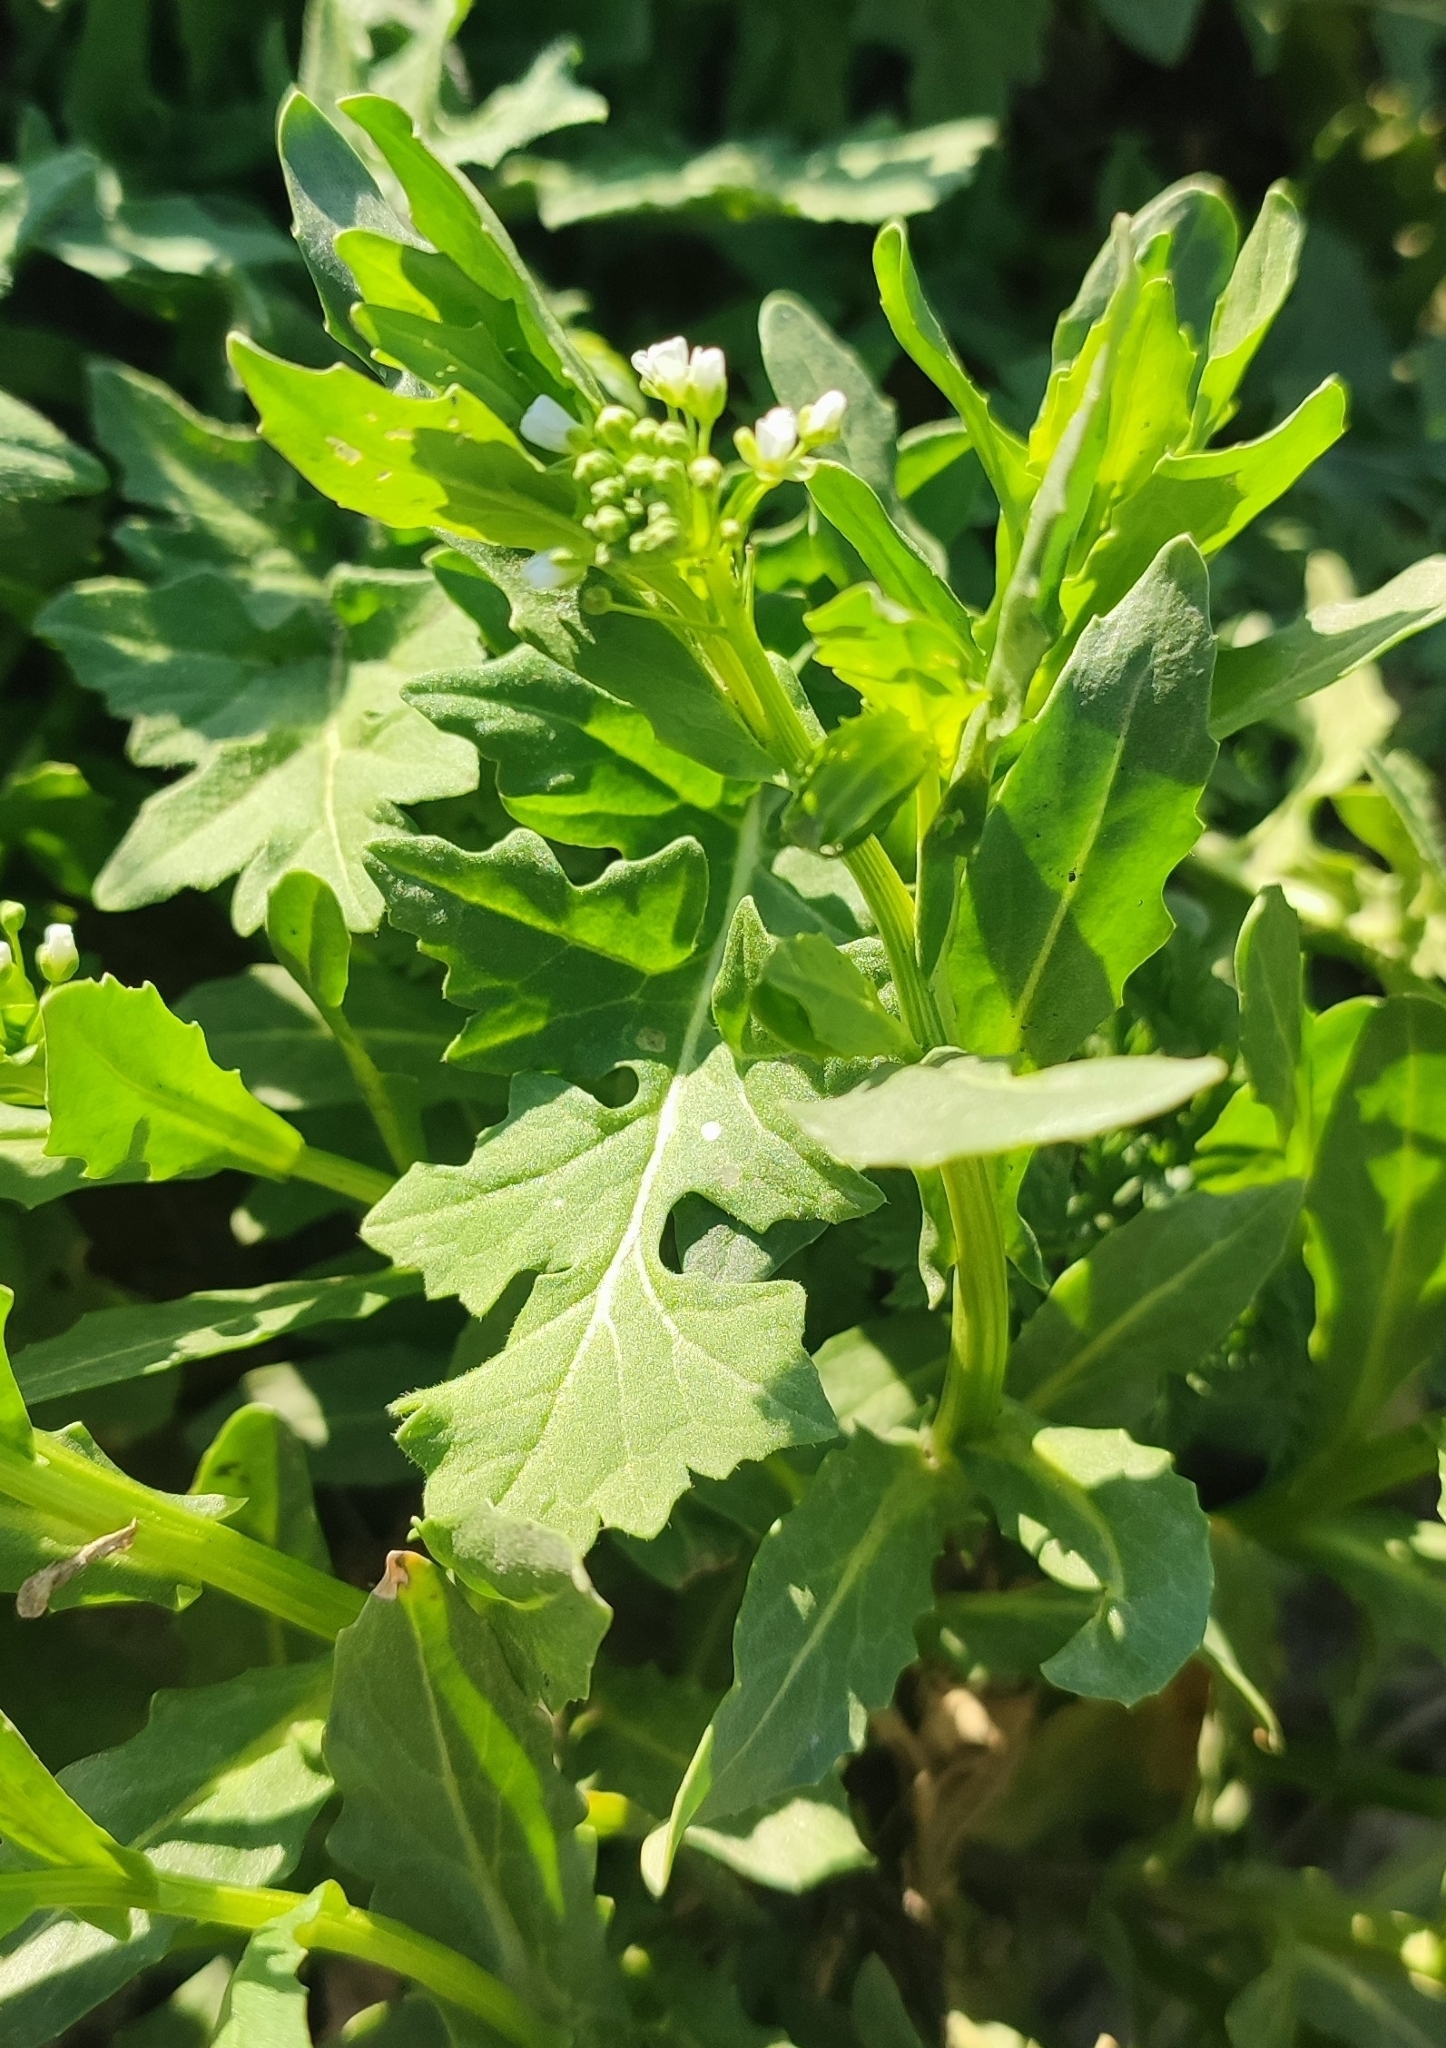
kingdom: Plantae
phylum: Tracheophyta
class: Magnoliopsida
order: Brassicales
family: Brassicaceae
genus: Thlaspi
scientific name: Thlaspi arvense
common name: Field pennycress
